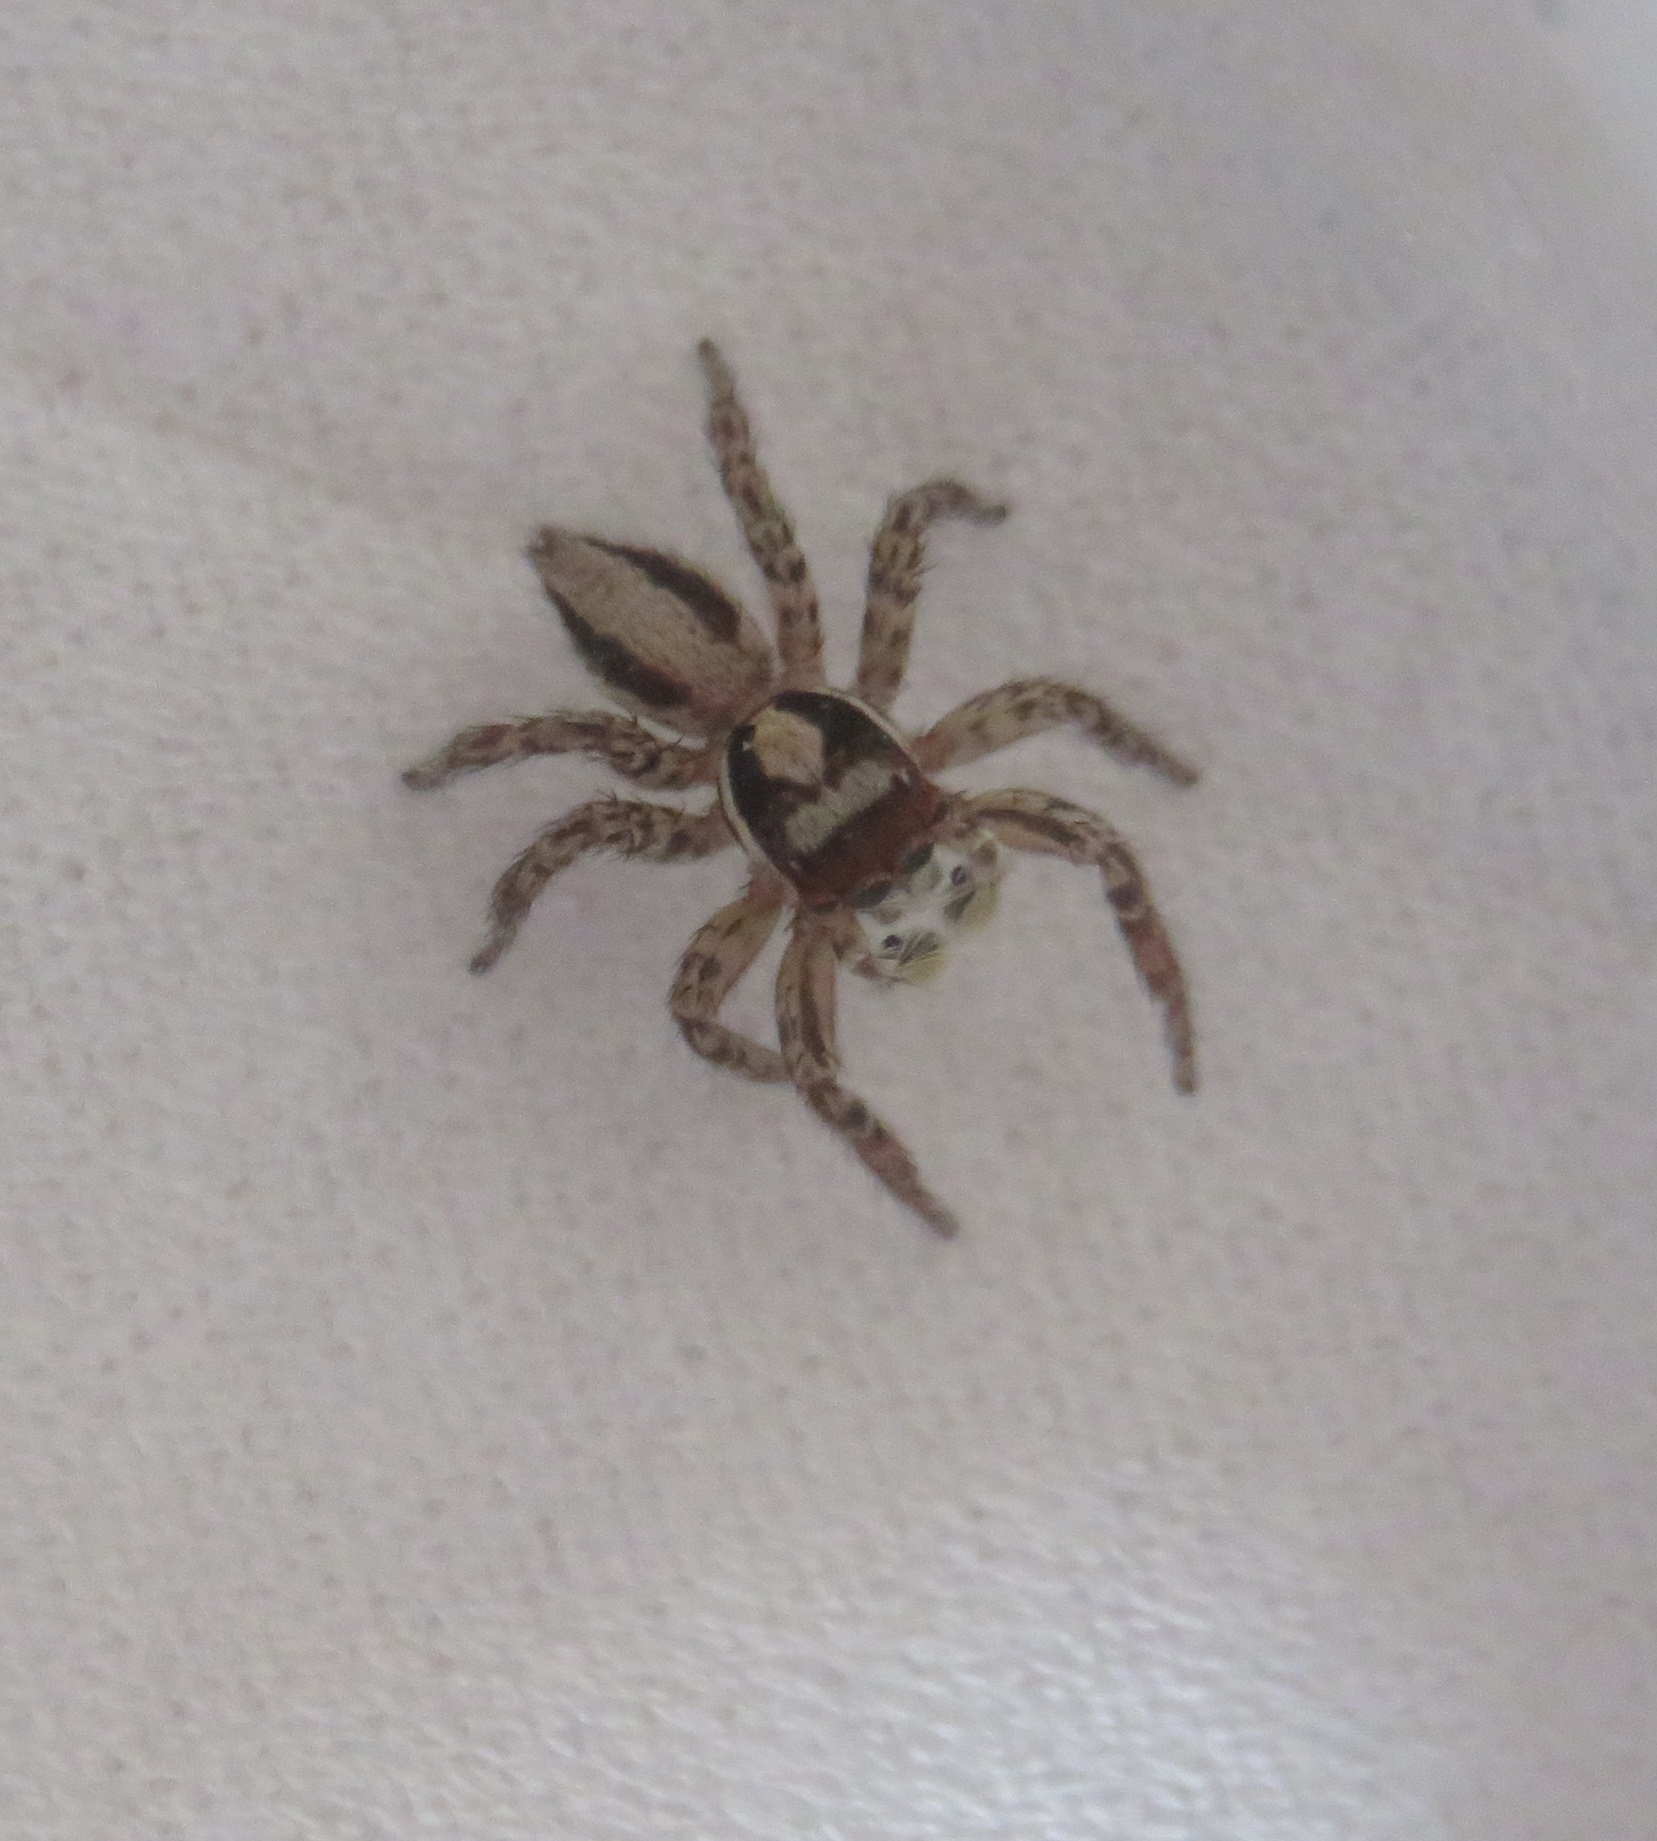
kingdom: Animalia
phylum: Arthropoda
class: Arachnida
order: Araneae
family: Salticidae
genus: Plexippus
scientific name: Plexippus setipes
